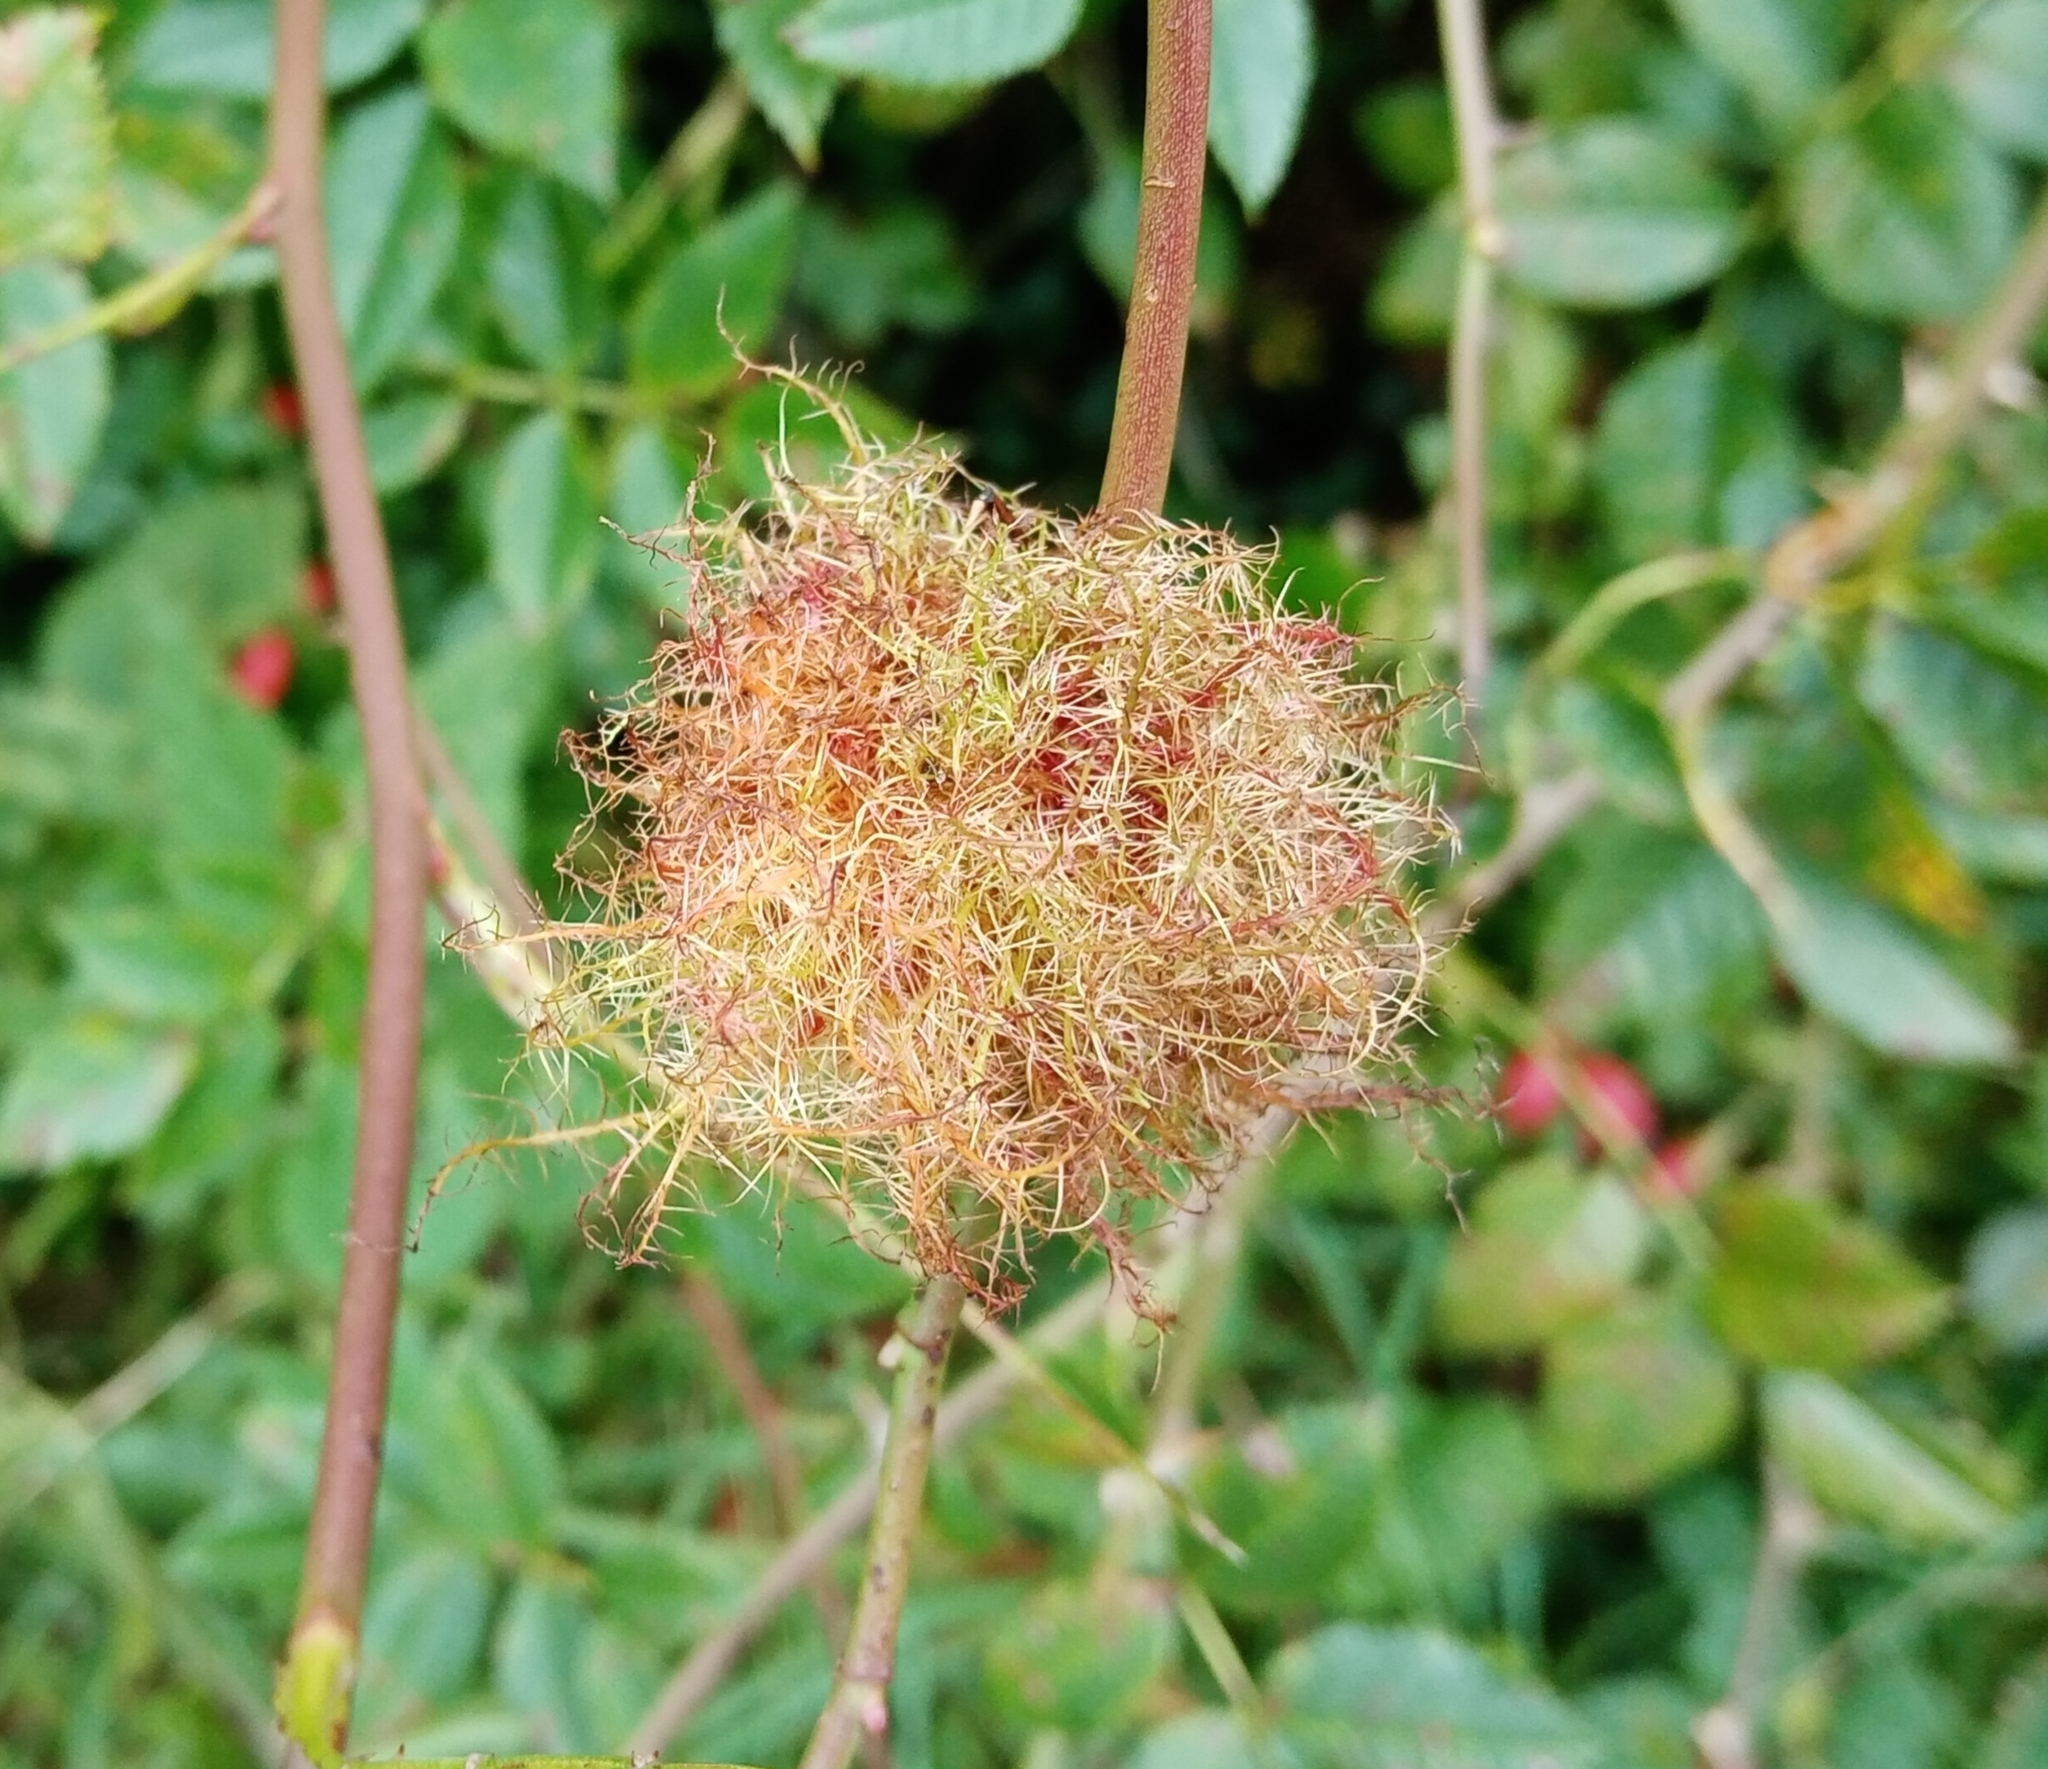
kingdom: Animalia
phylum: Arthropoda
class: Insecta
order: Hymenoptera
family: Cynipidae
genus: Diplolepis
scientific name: Diplolepis rosae
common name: Bedeguar gall
